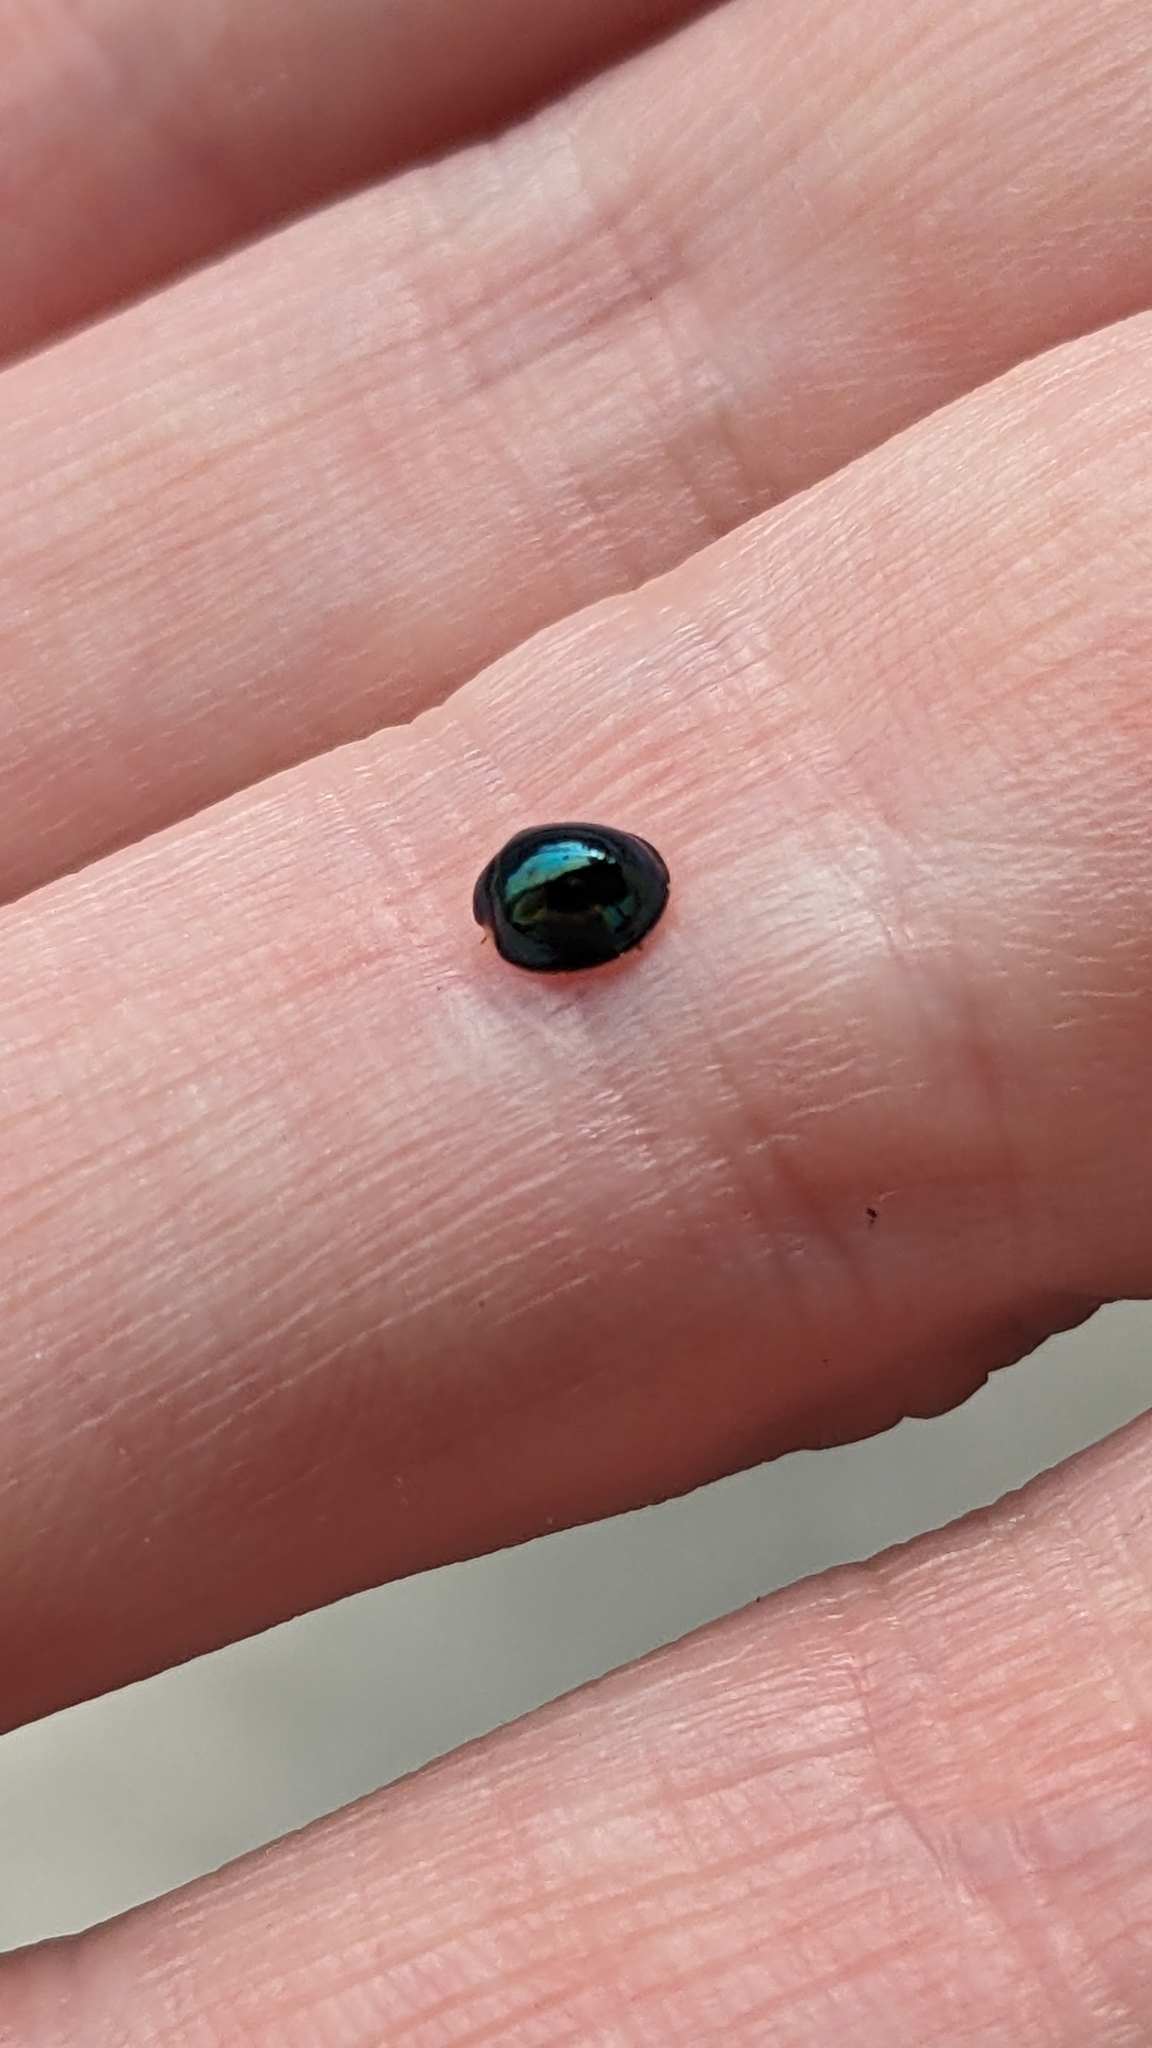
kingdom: Animalia
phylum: Arthropoda
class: Insecta
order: Coleoptera
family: Coccinellidae
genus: Halmus
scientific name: Halmus chalybeus
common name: Steel blue ladybird beetle
